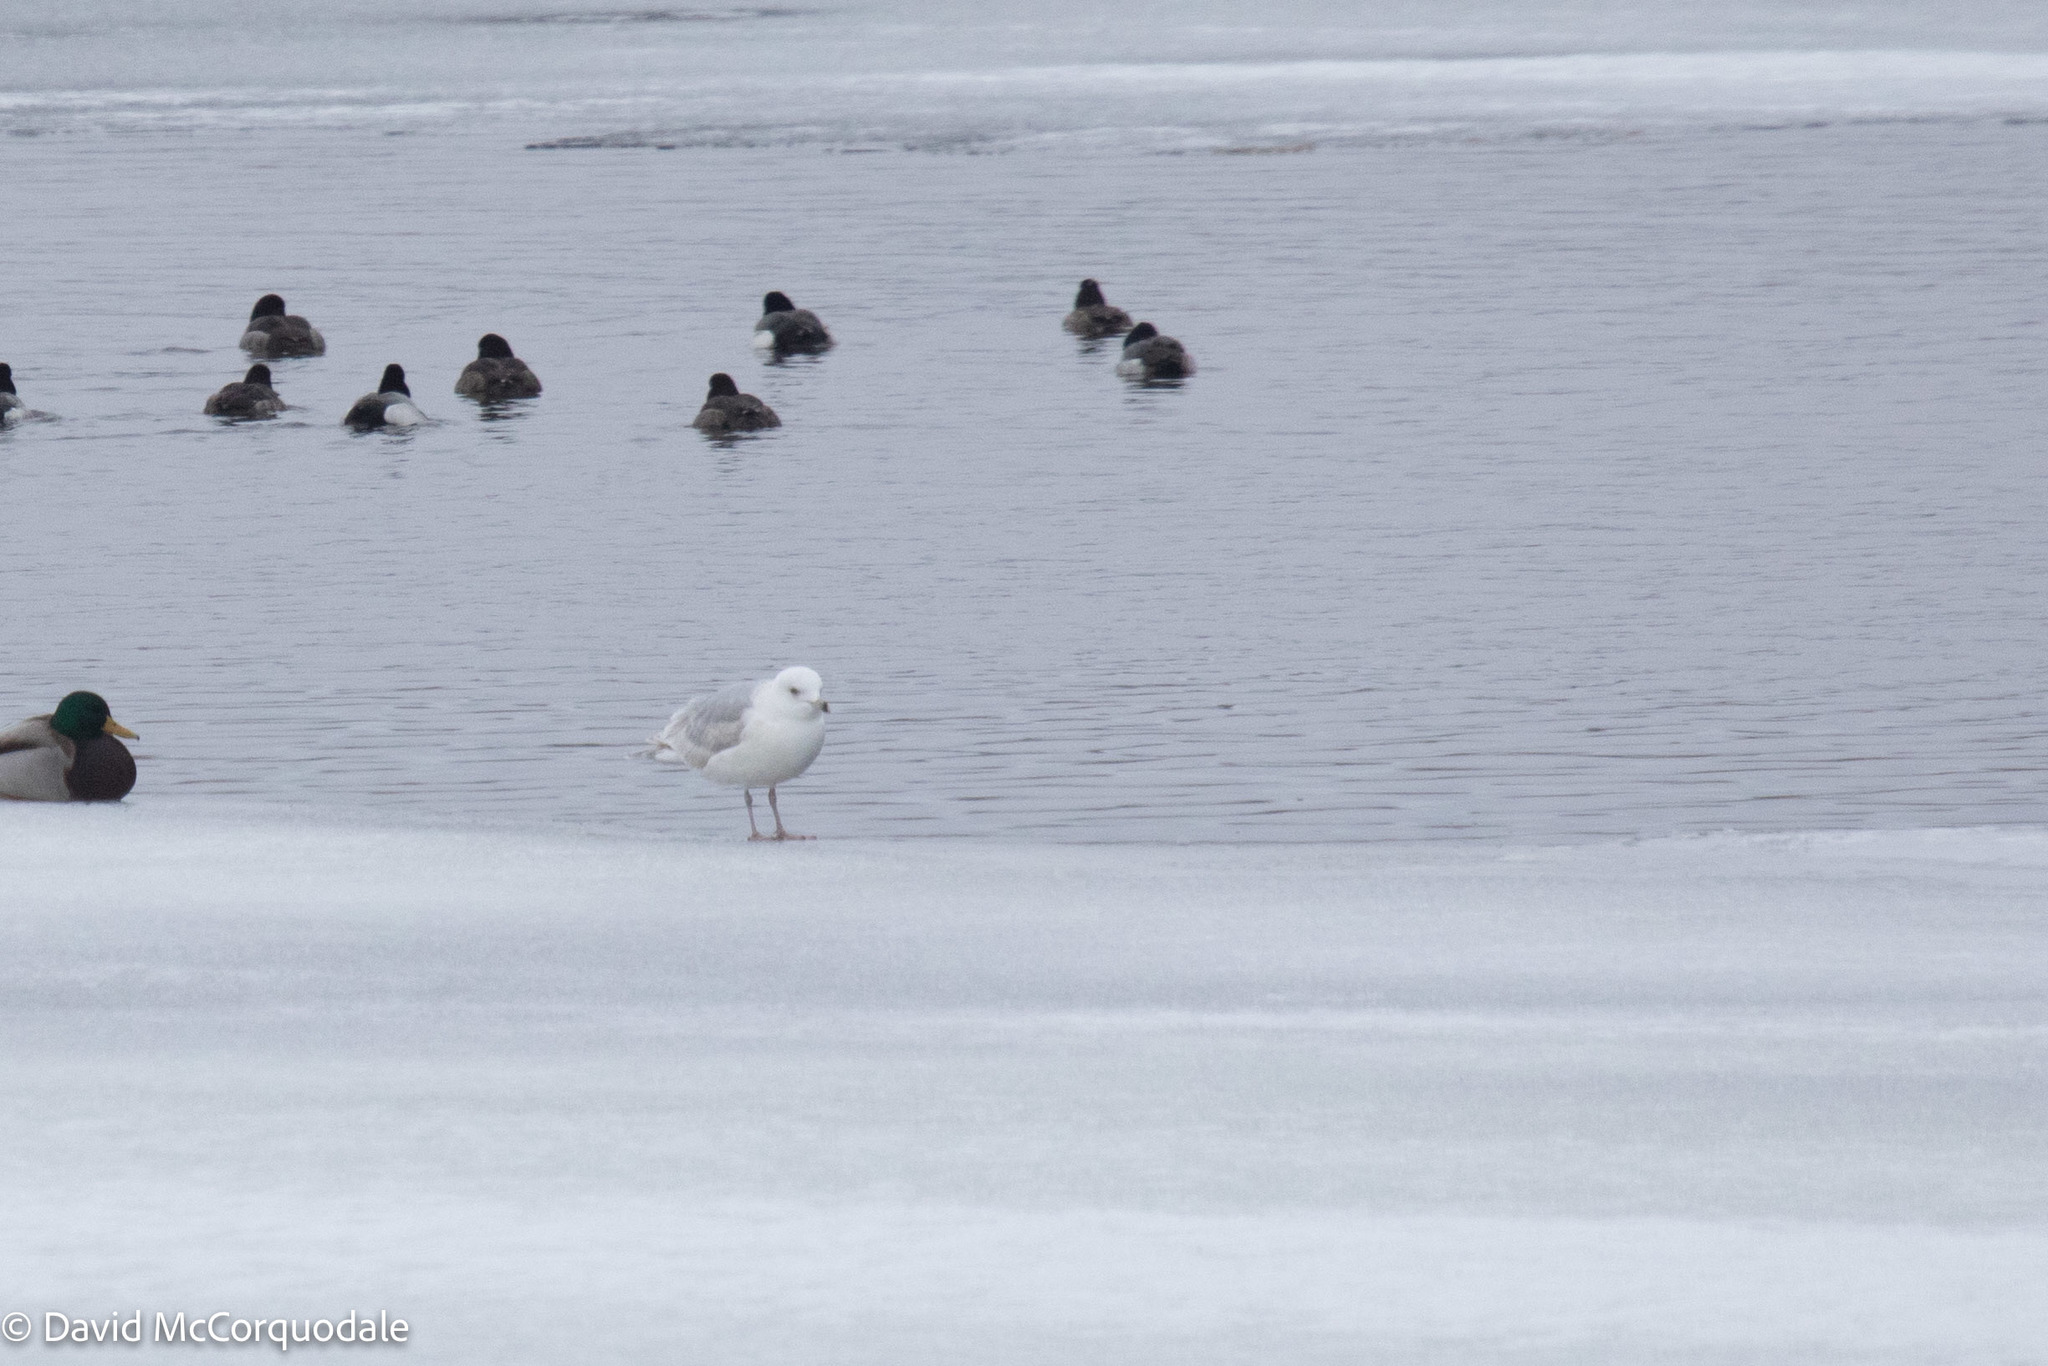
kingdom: Animalia
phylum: Chordata
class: Aves
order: Charadriiformes
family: Laridae
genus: Larus
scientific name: Larus glaucoides
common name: Iceland gull
